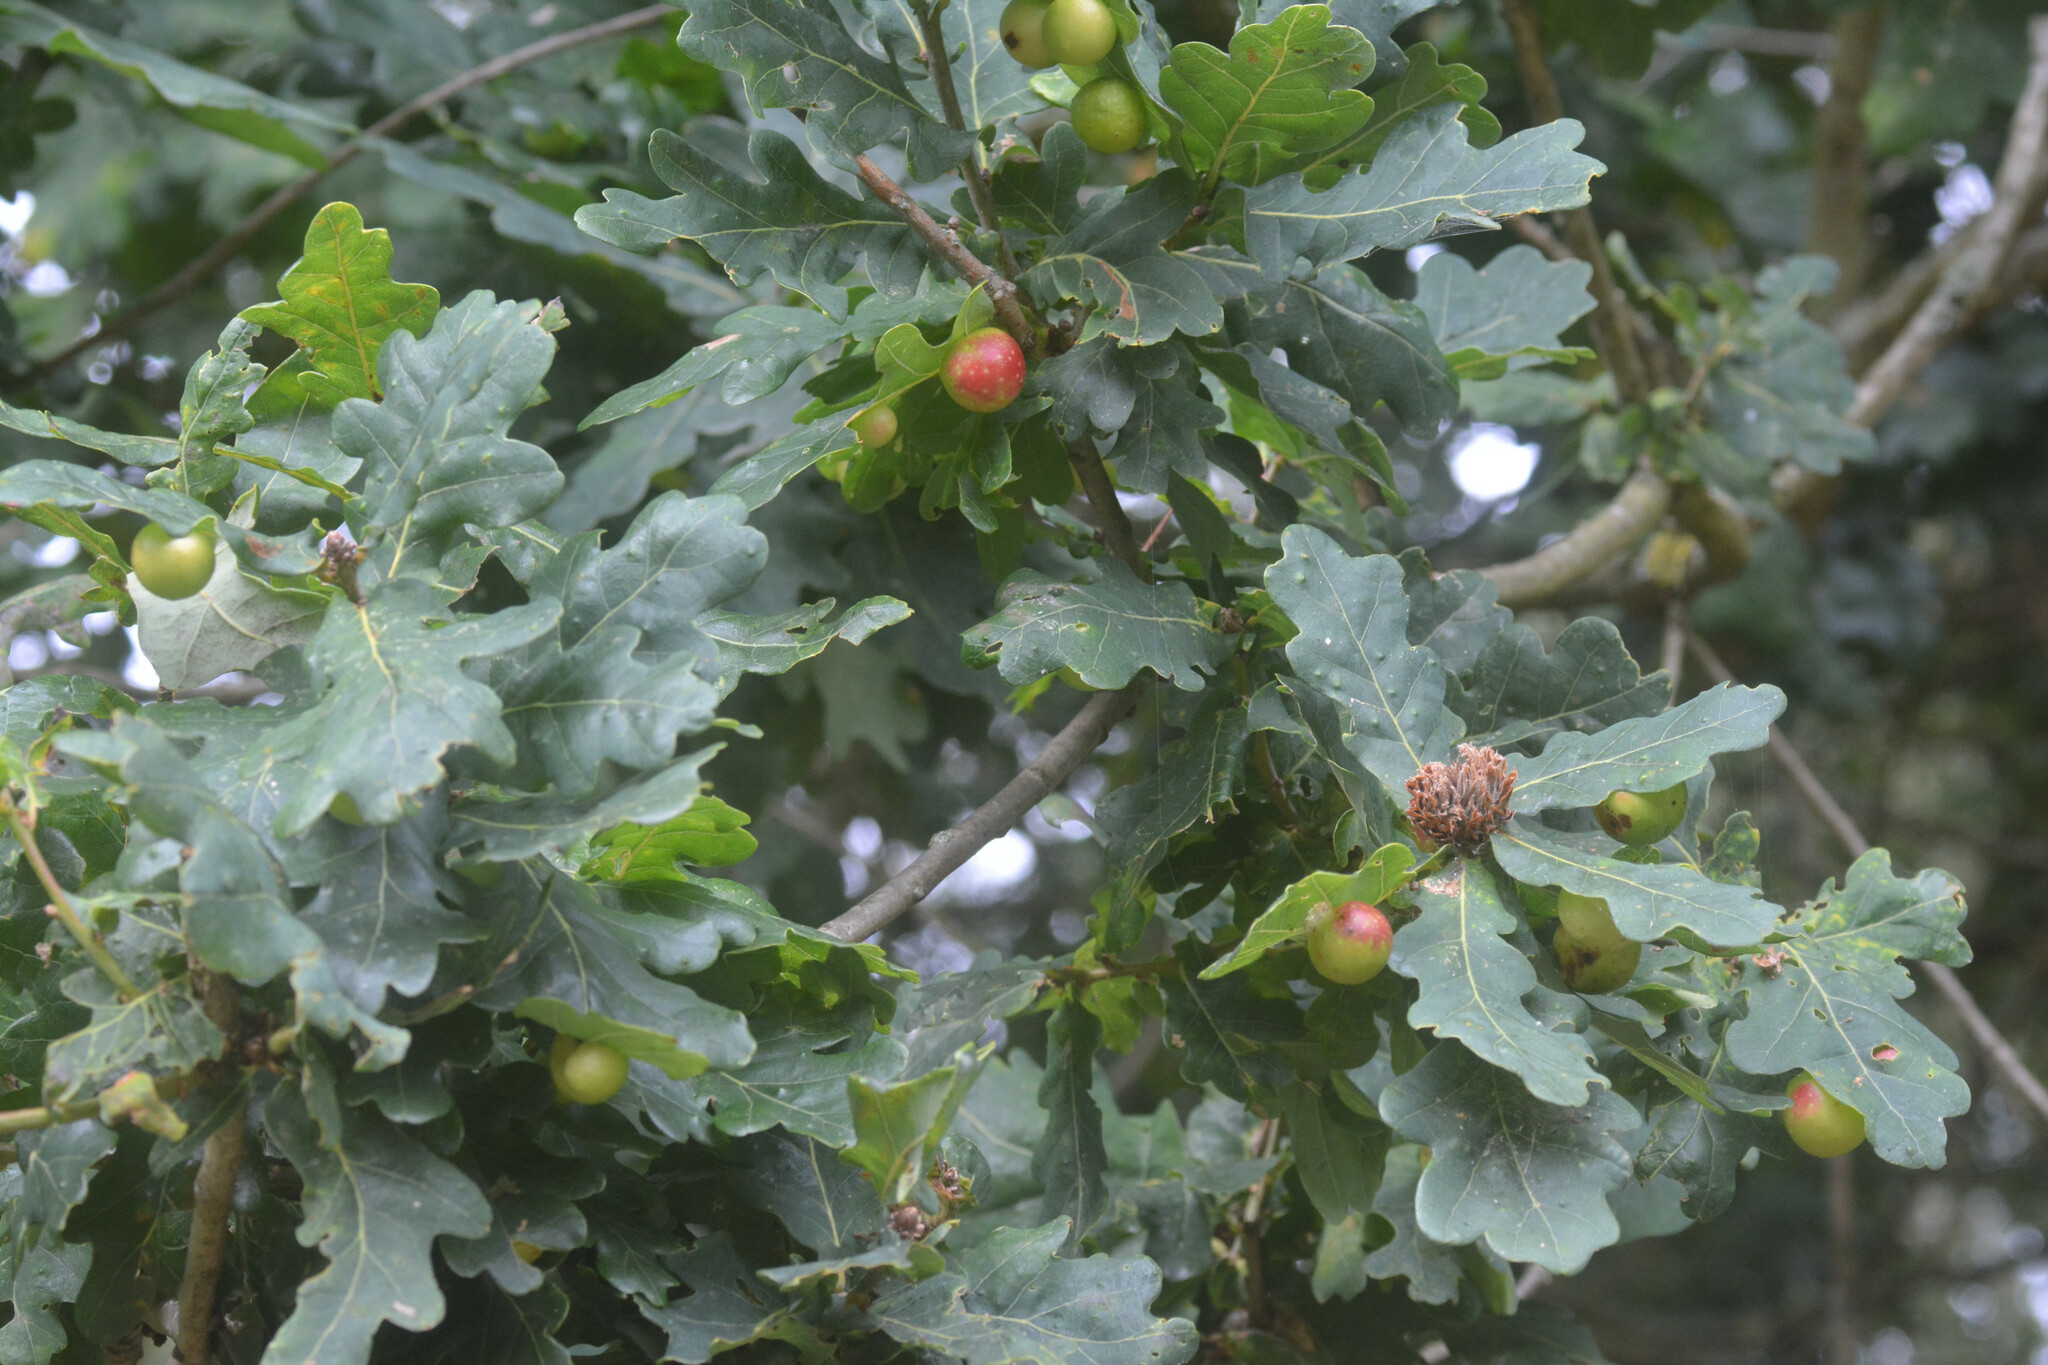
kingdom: Animalia
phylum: Arthropoda
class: Insecta
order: Hymenoptera
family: Cynipidae
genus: Cynips
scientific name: Cynips quercusfolii
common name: Cherry gall
